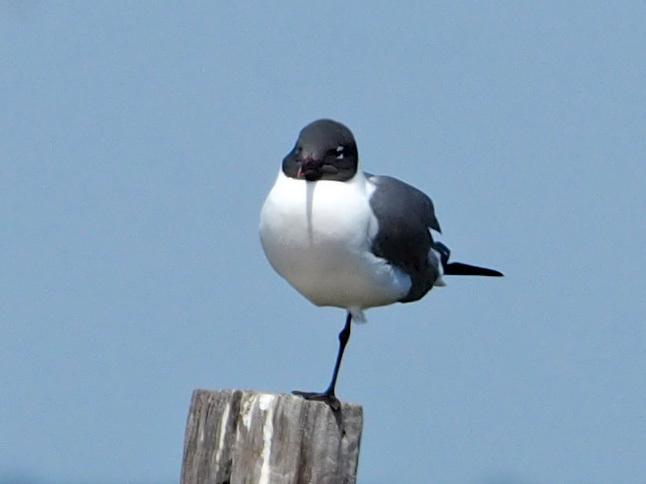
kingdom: Animalia
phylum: Chordata
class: Aves
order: Charadriiformes
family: Laridae
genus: Leucophaeus
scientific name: Leucophaeus atricilla
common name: Laughing gull
